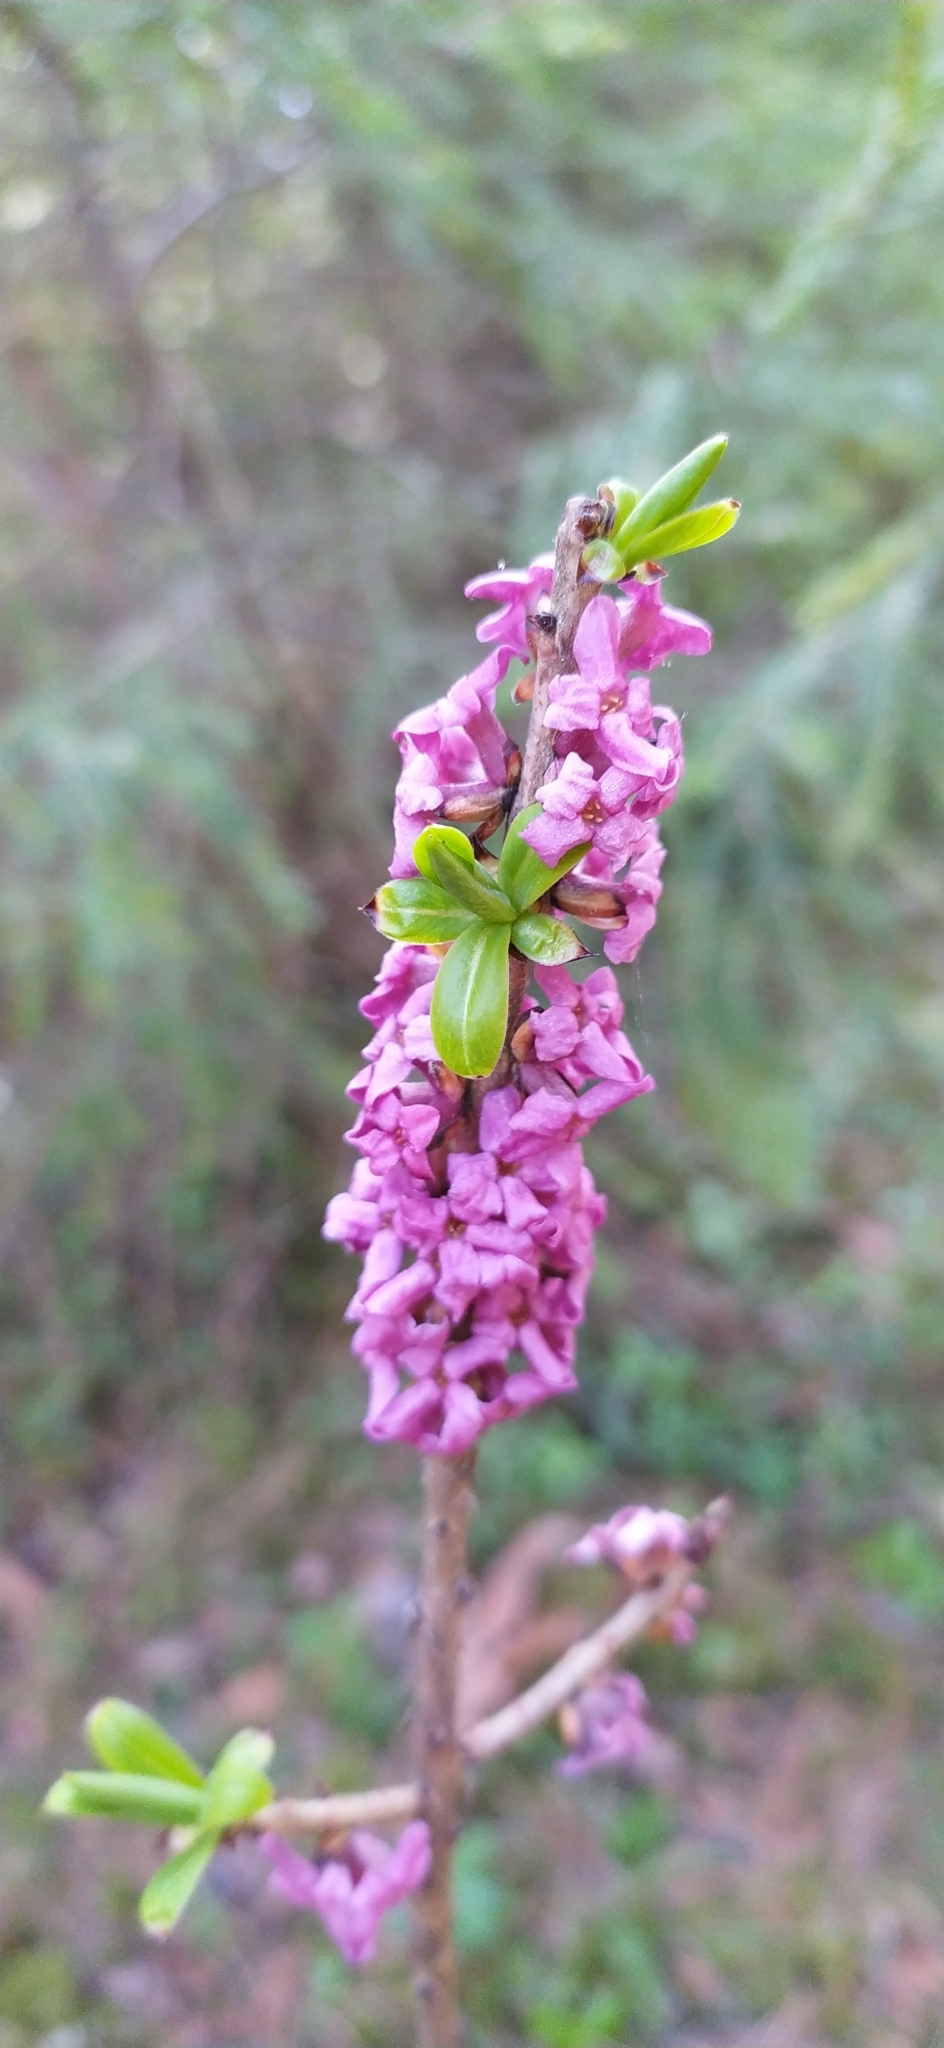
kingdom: Plantae
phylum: Tracheophyta
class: Magnoliopsida
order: Malvales
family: Thymelaeaceae
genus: Daphne
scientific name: Daphne mezereum
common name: Mezereon
